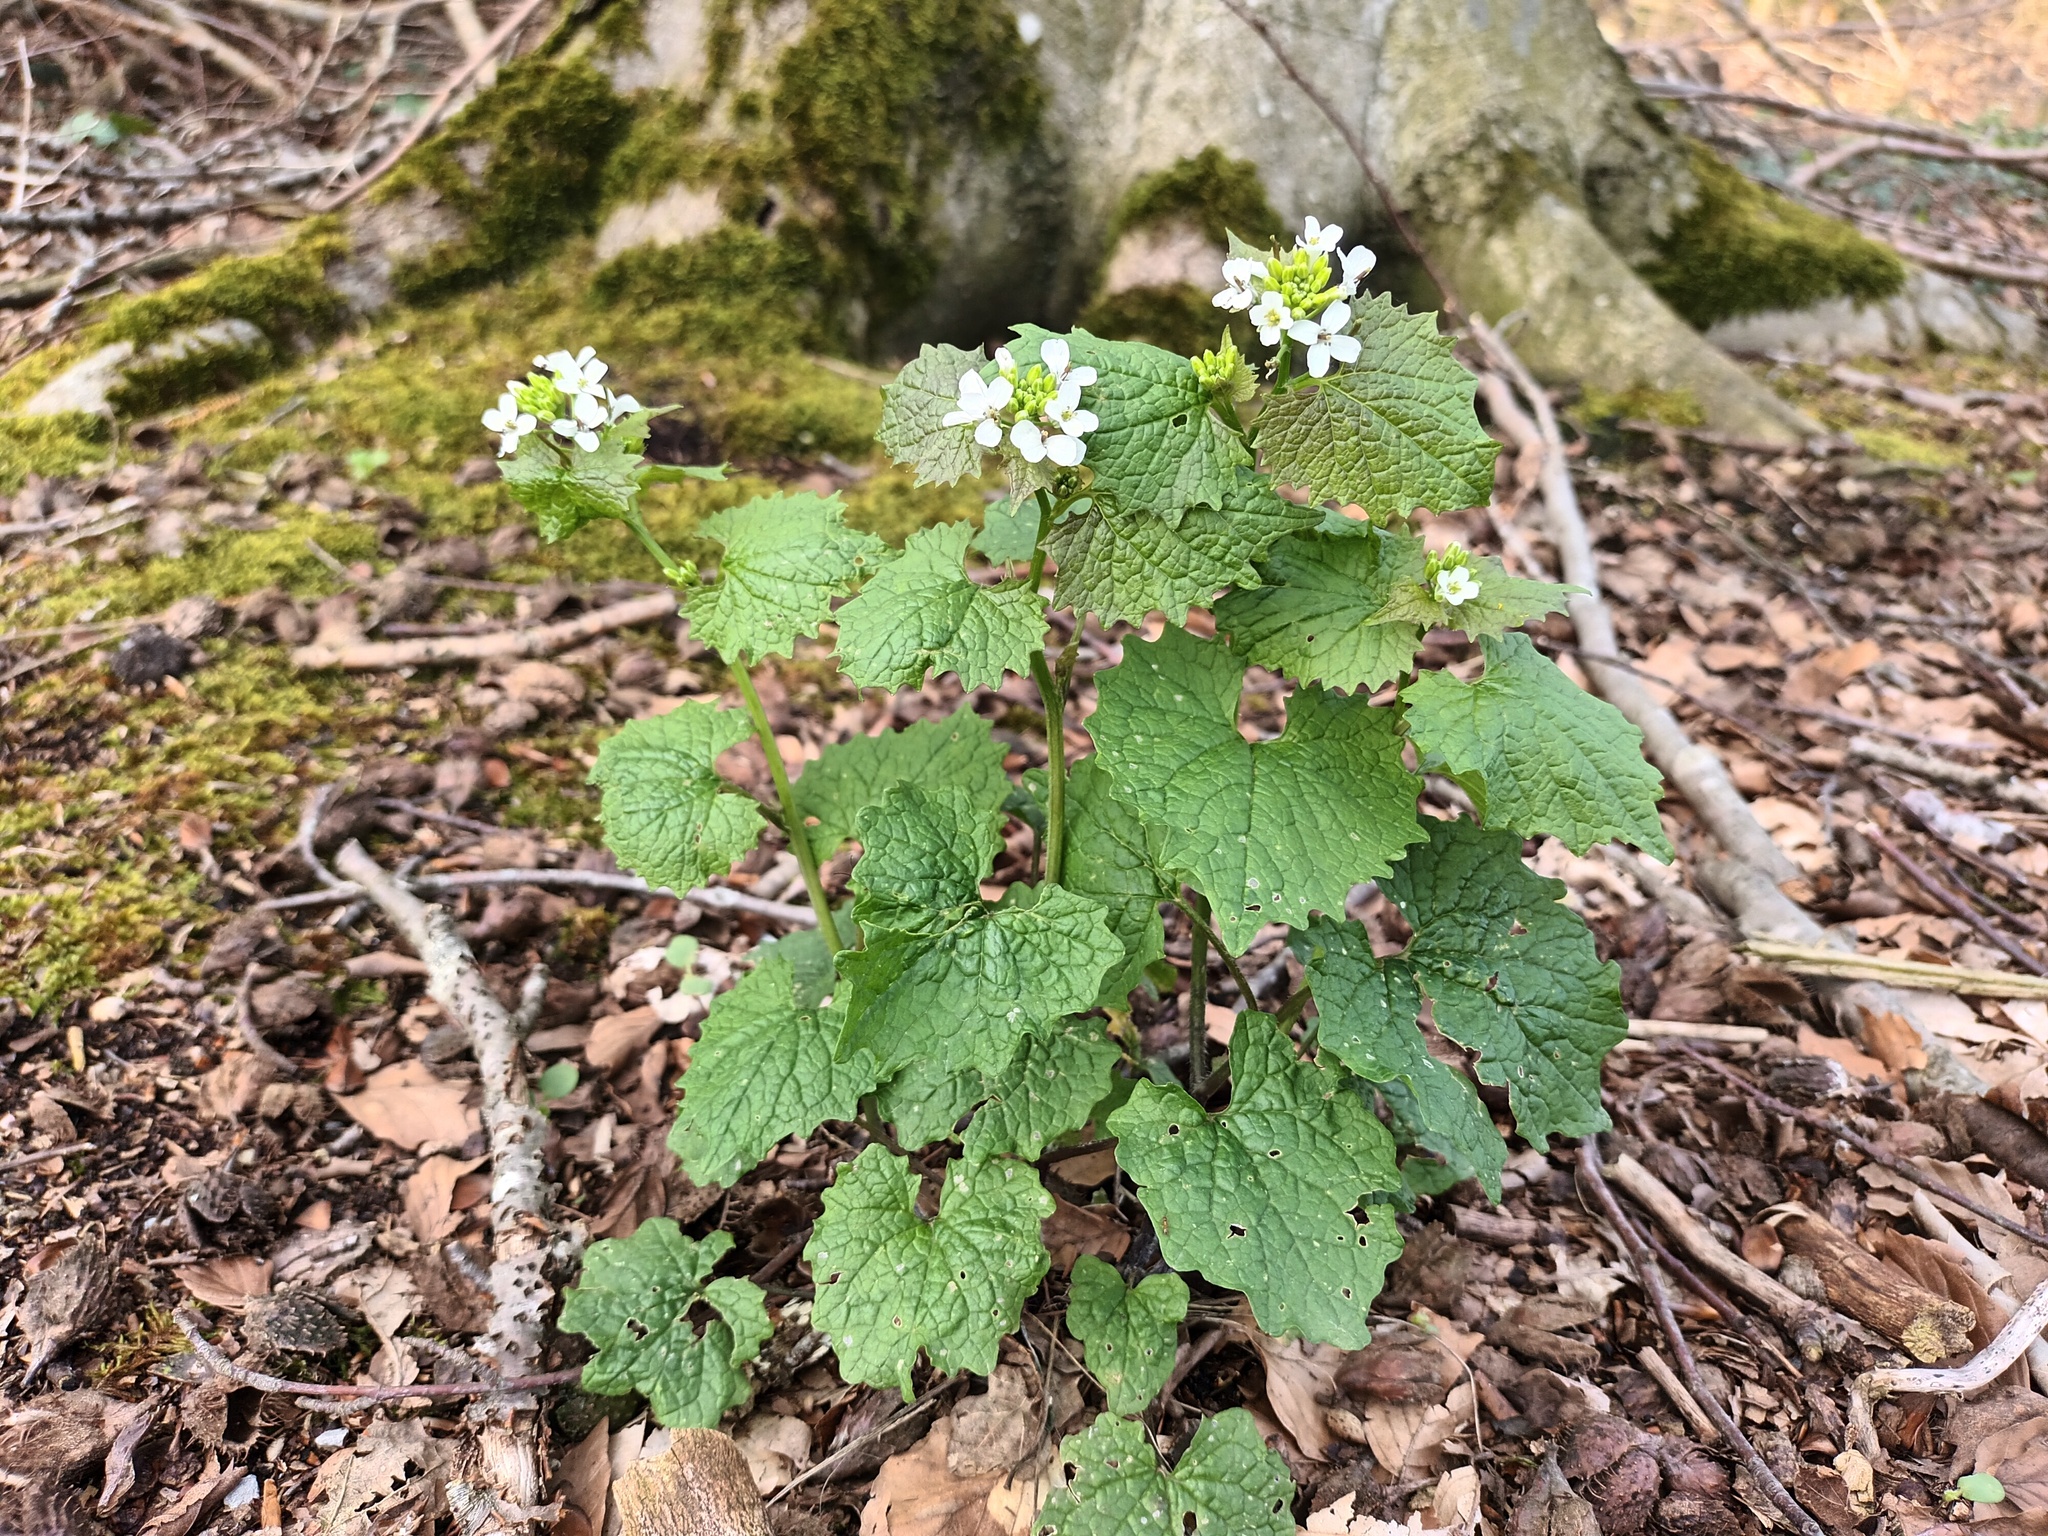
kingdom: Plantae
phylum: Tracheophyta
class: Magnoliopsida
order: Brassicales
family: Brassicaceae
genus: Alliaria
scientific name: Alliaria petiolata
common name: Garlic mustard
